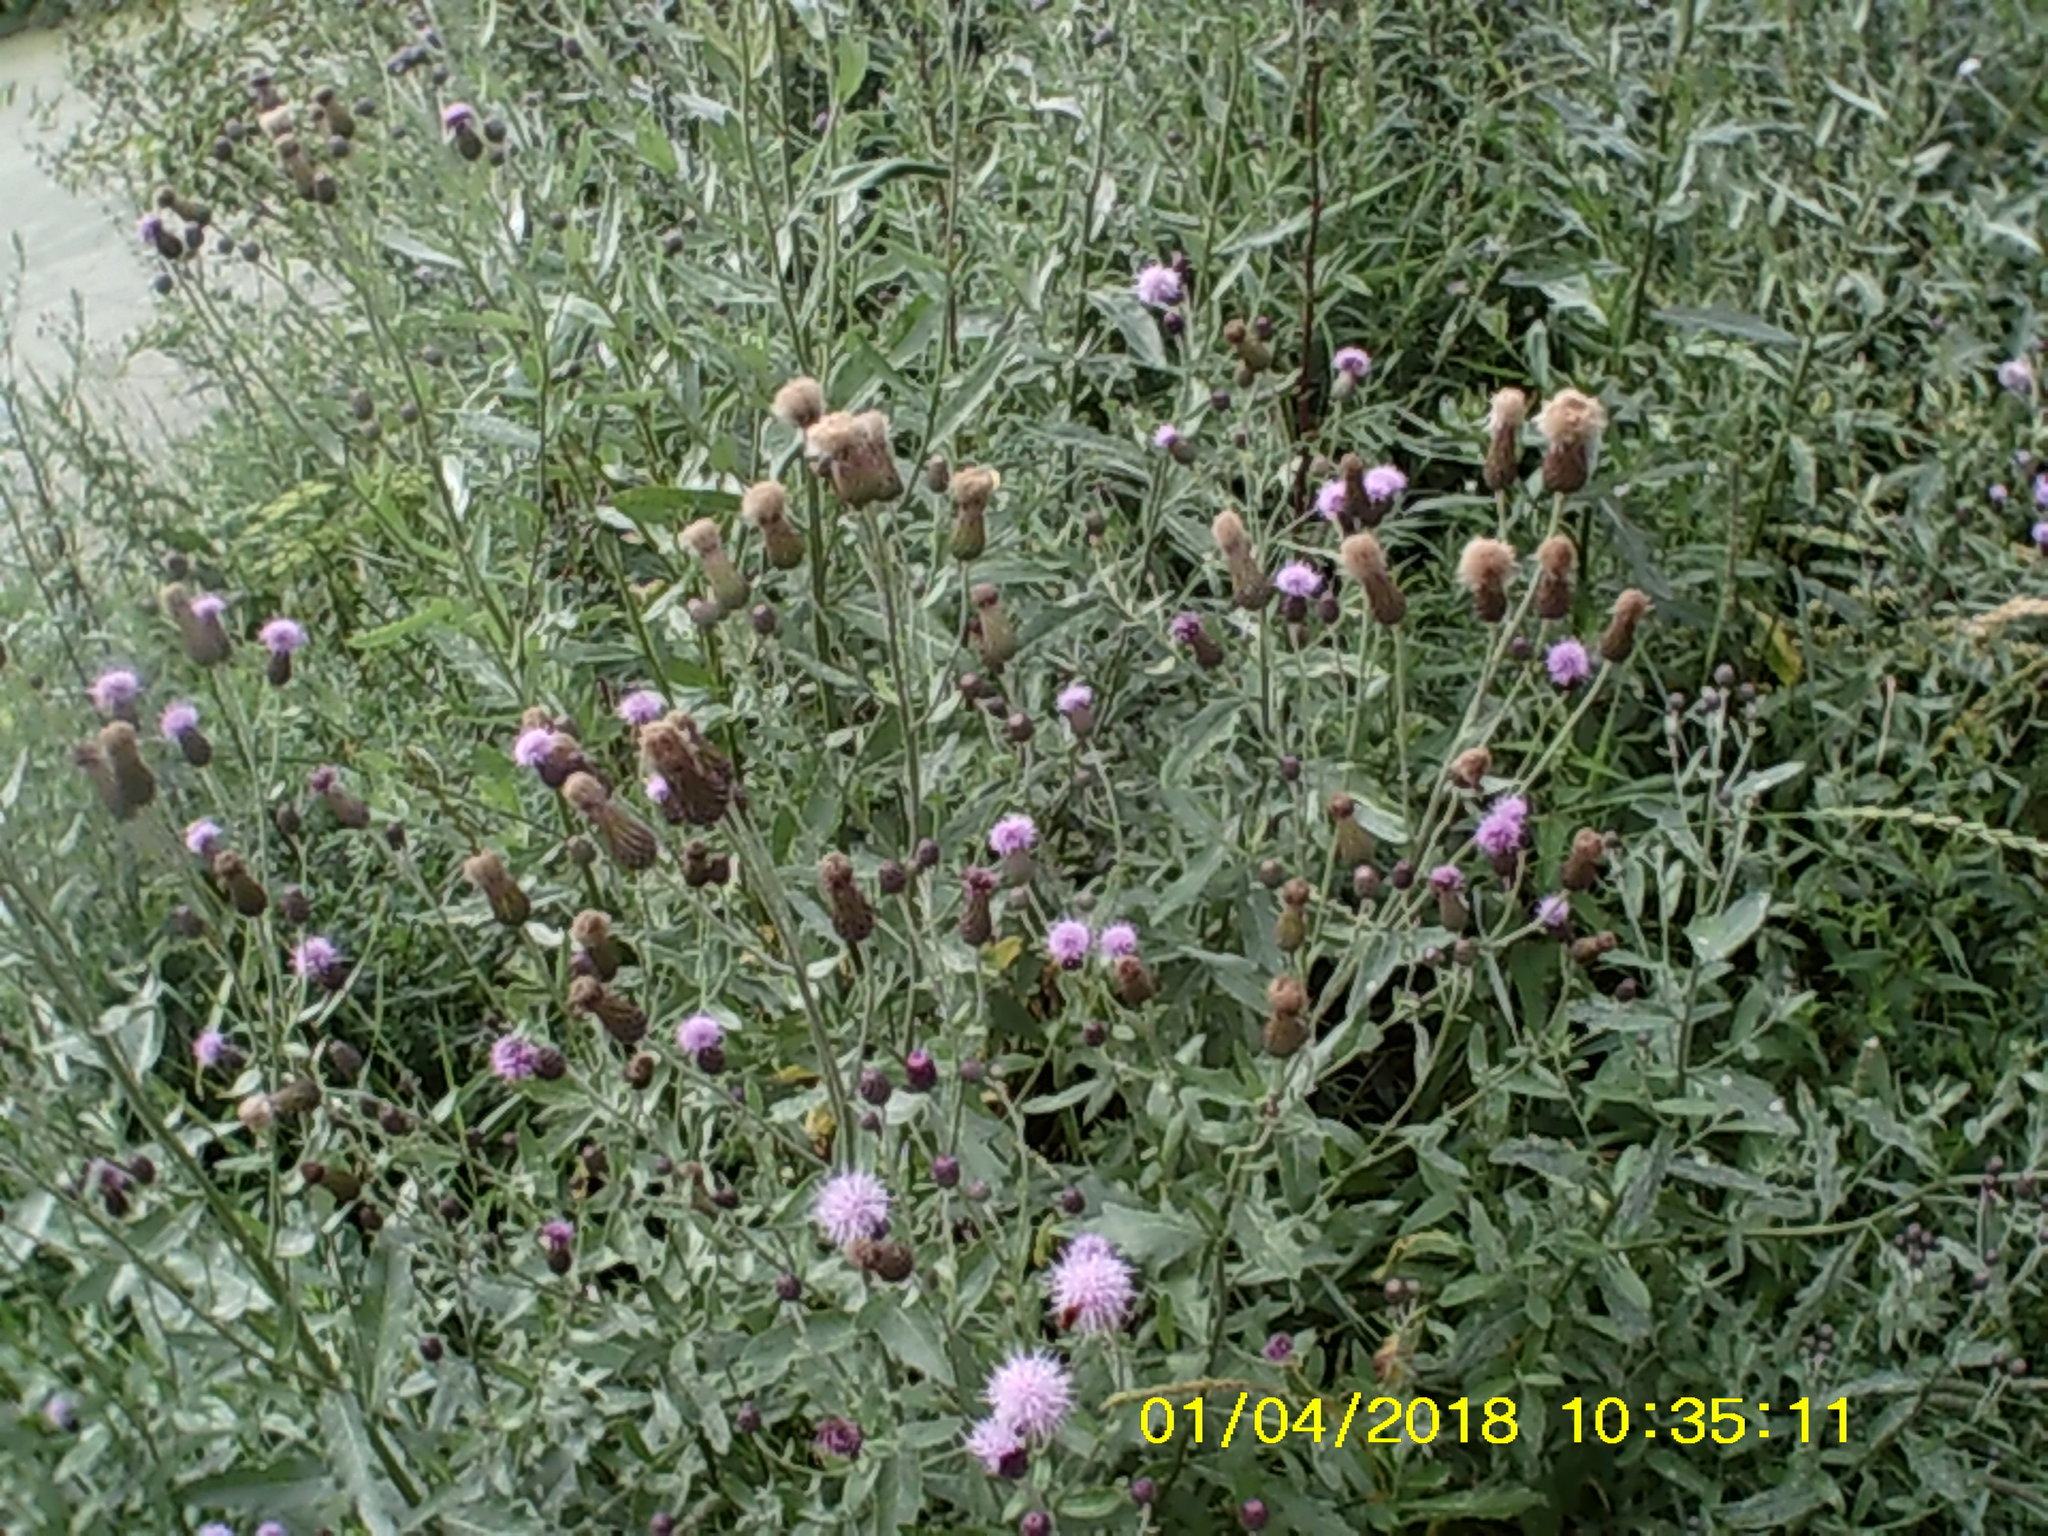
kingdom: Plantae
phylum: Tracheophyta
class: Magnoliopsida
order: Asterales
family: Asteraceae
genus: Cirsium
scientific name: Cirsium arvense
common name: Creeping thistle
